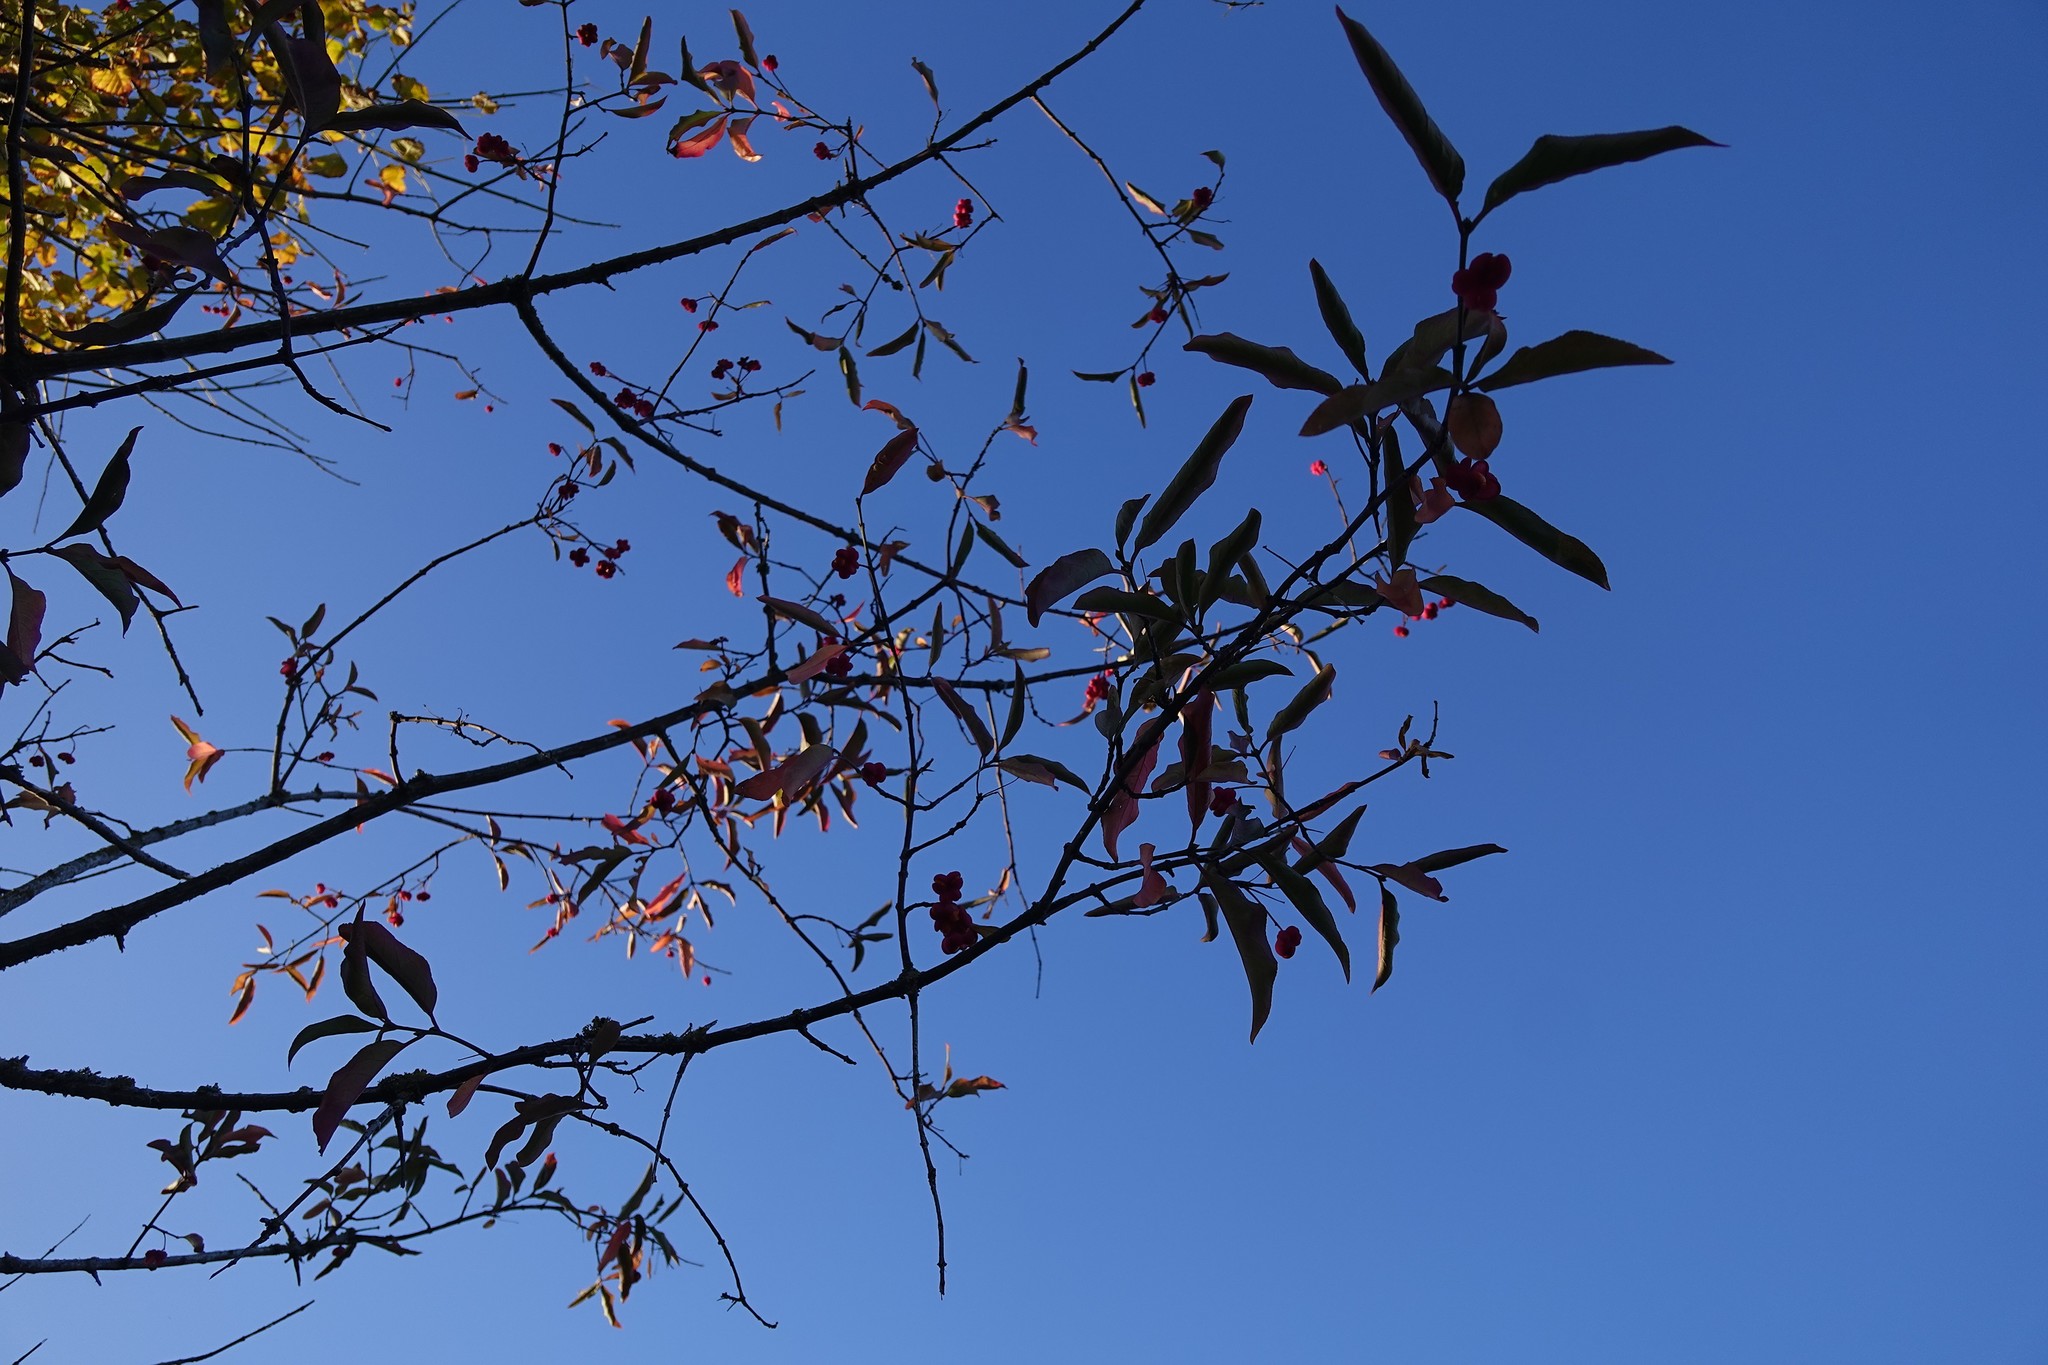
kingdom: Plantae
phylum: Tracheophyta
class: Magnoliopsida
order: Celastrales
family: Celastraceae
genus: Euonymus
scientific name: Euonymus europaeus
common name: Spindle
